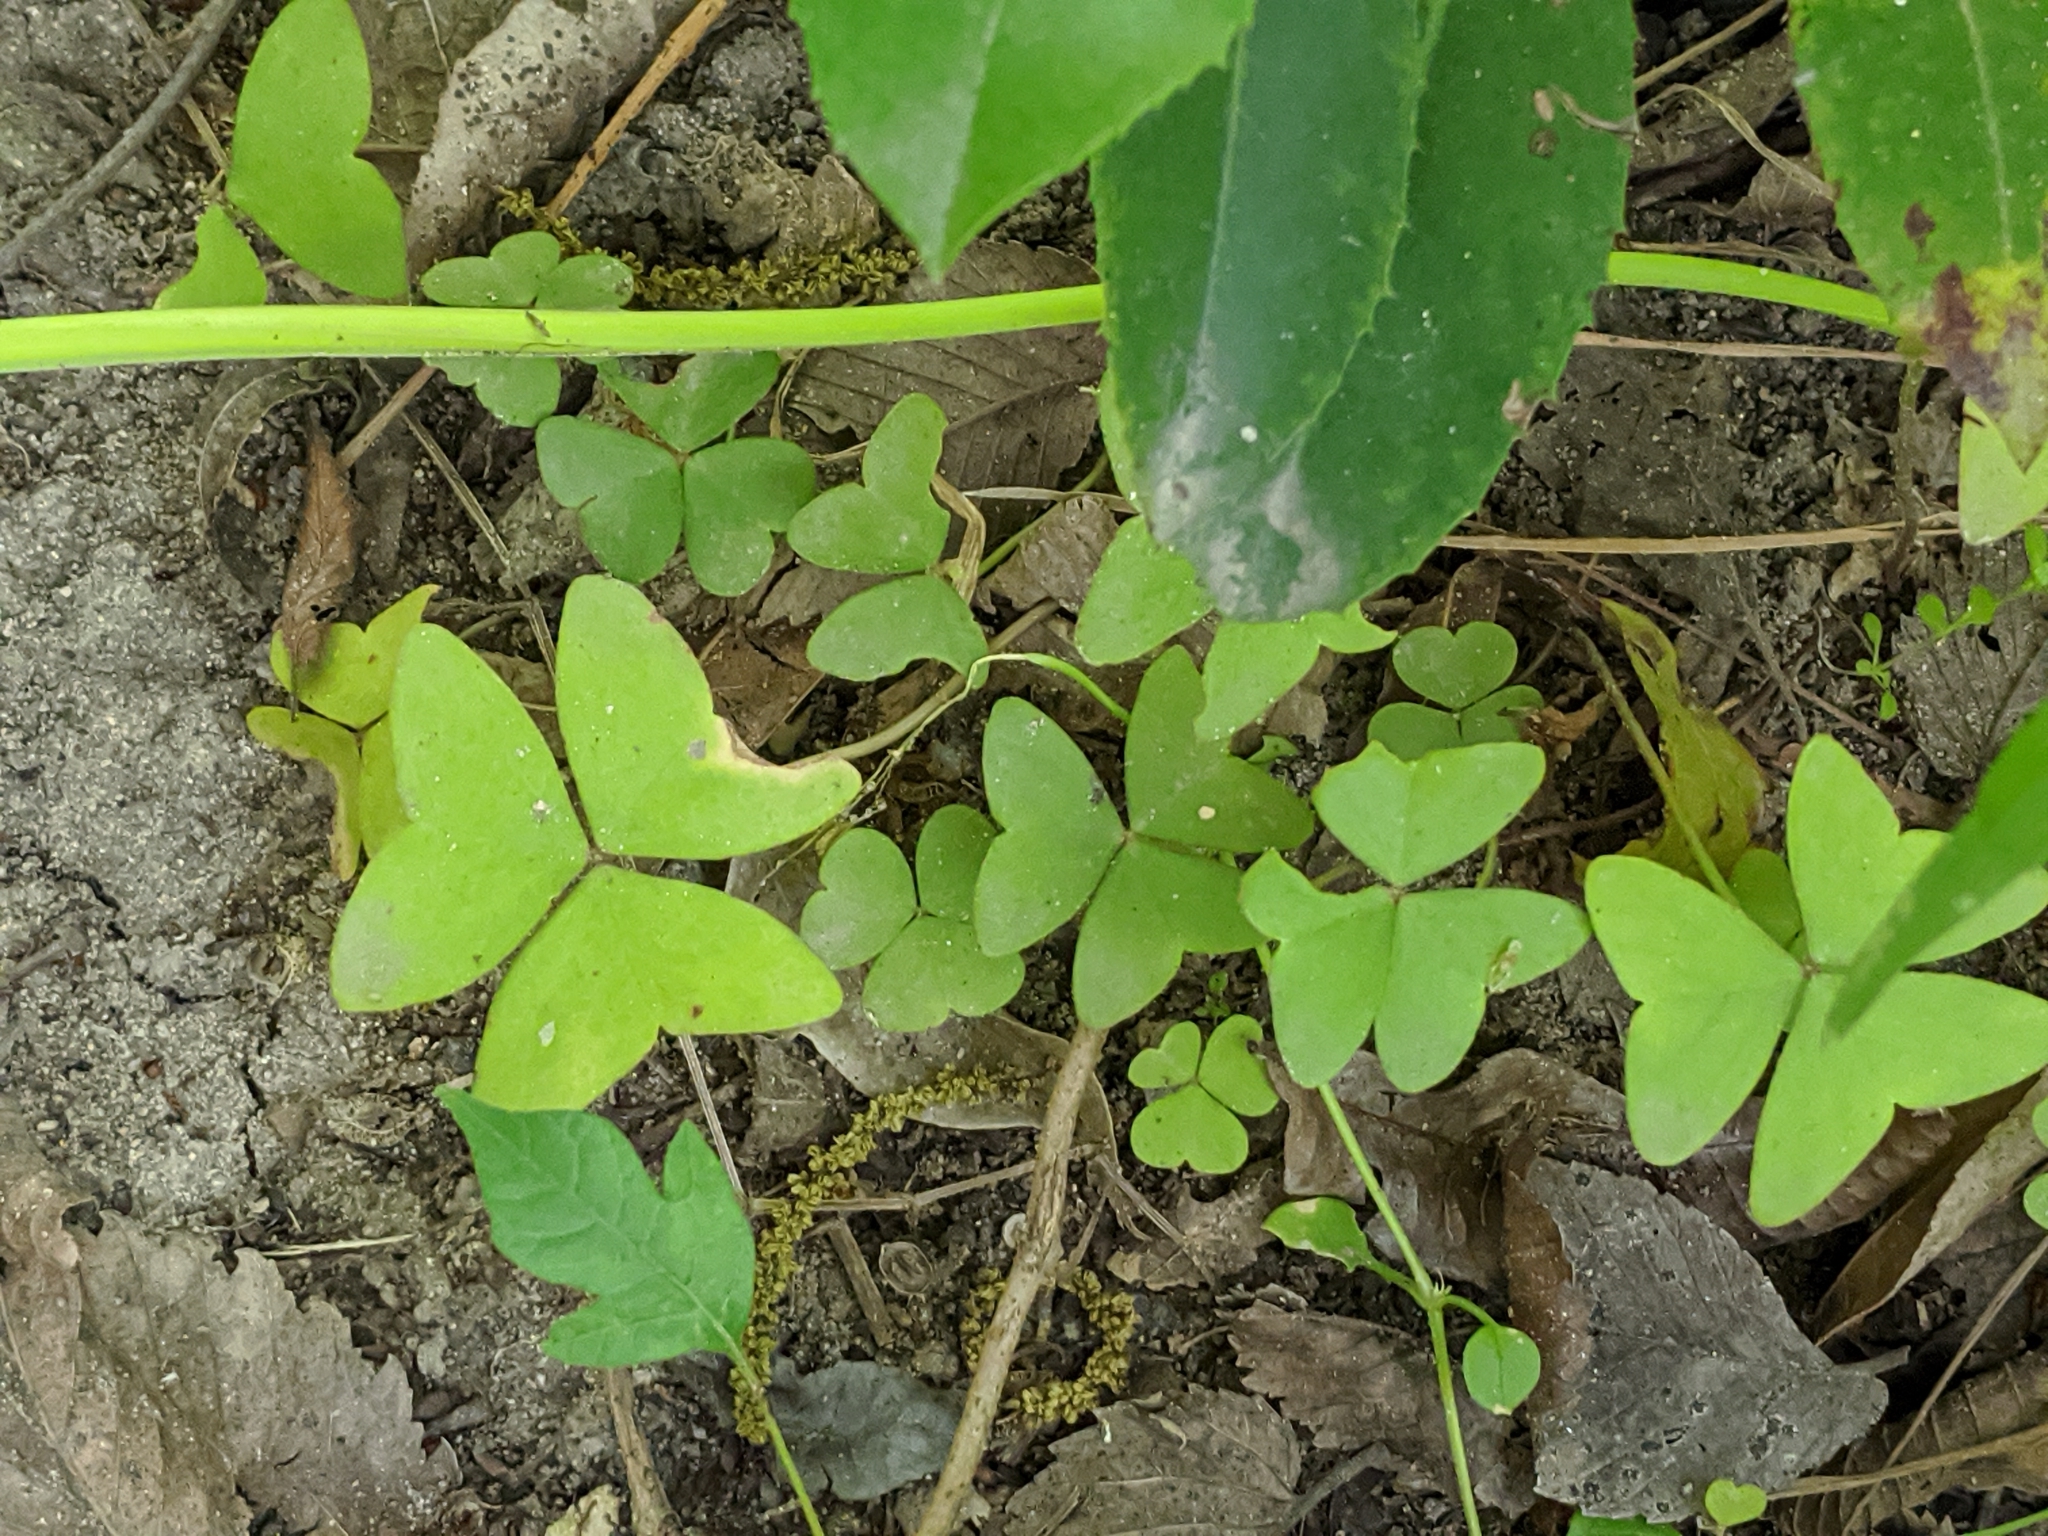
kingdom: Plantae
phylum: Tracheophyta
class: Magnoliopsida
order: Oxalidales
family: Oxalidaceae
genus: Oxalis
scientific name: Oxalis intermedia
